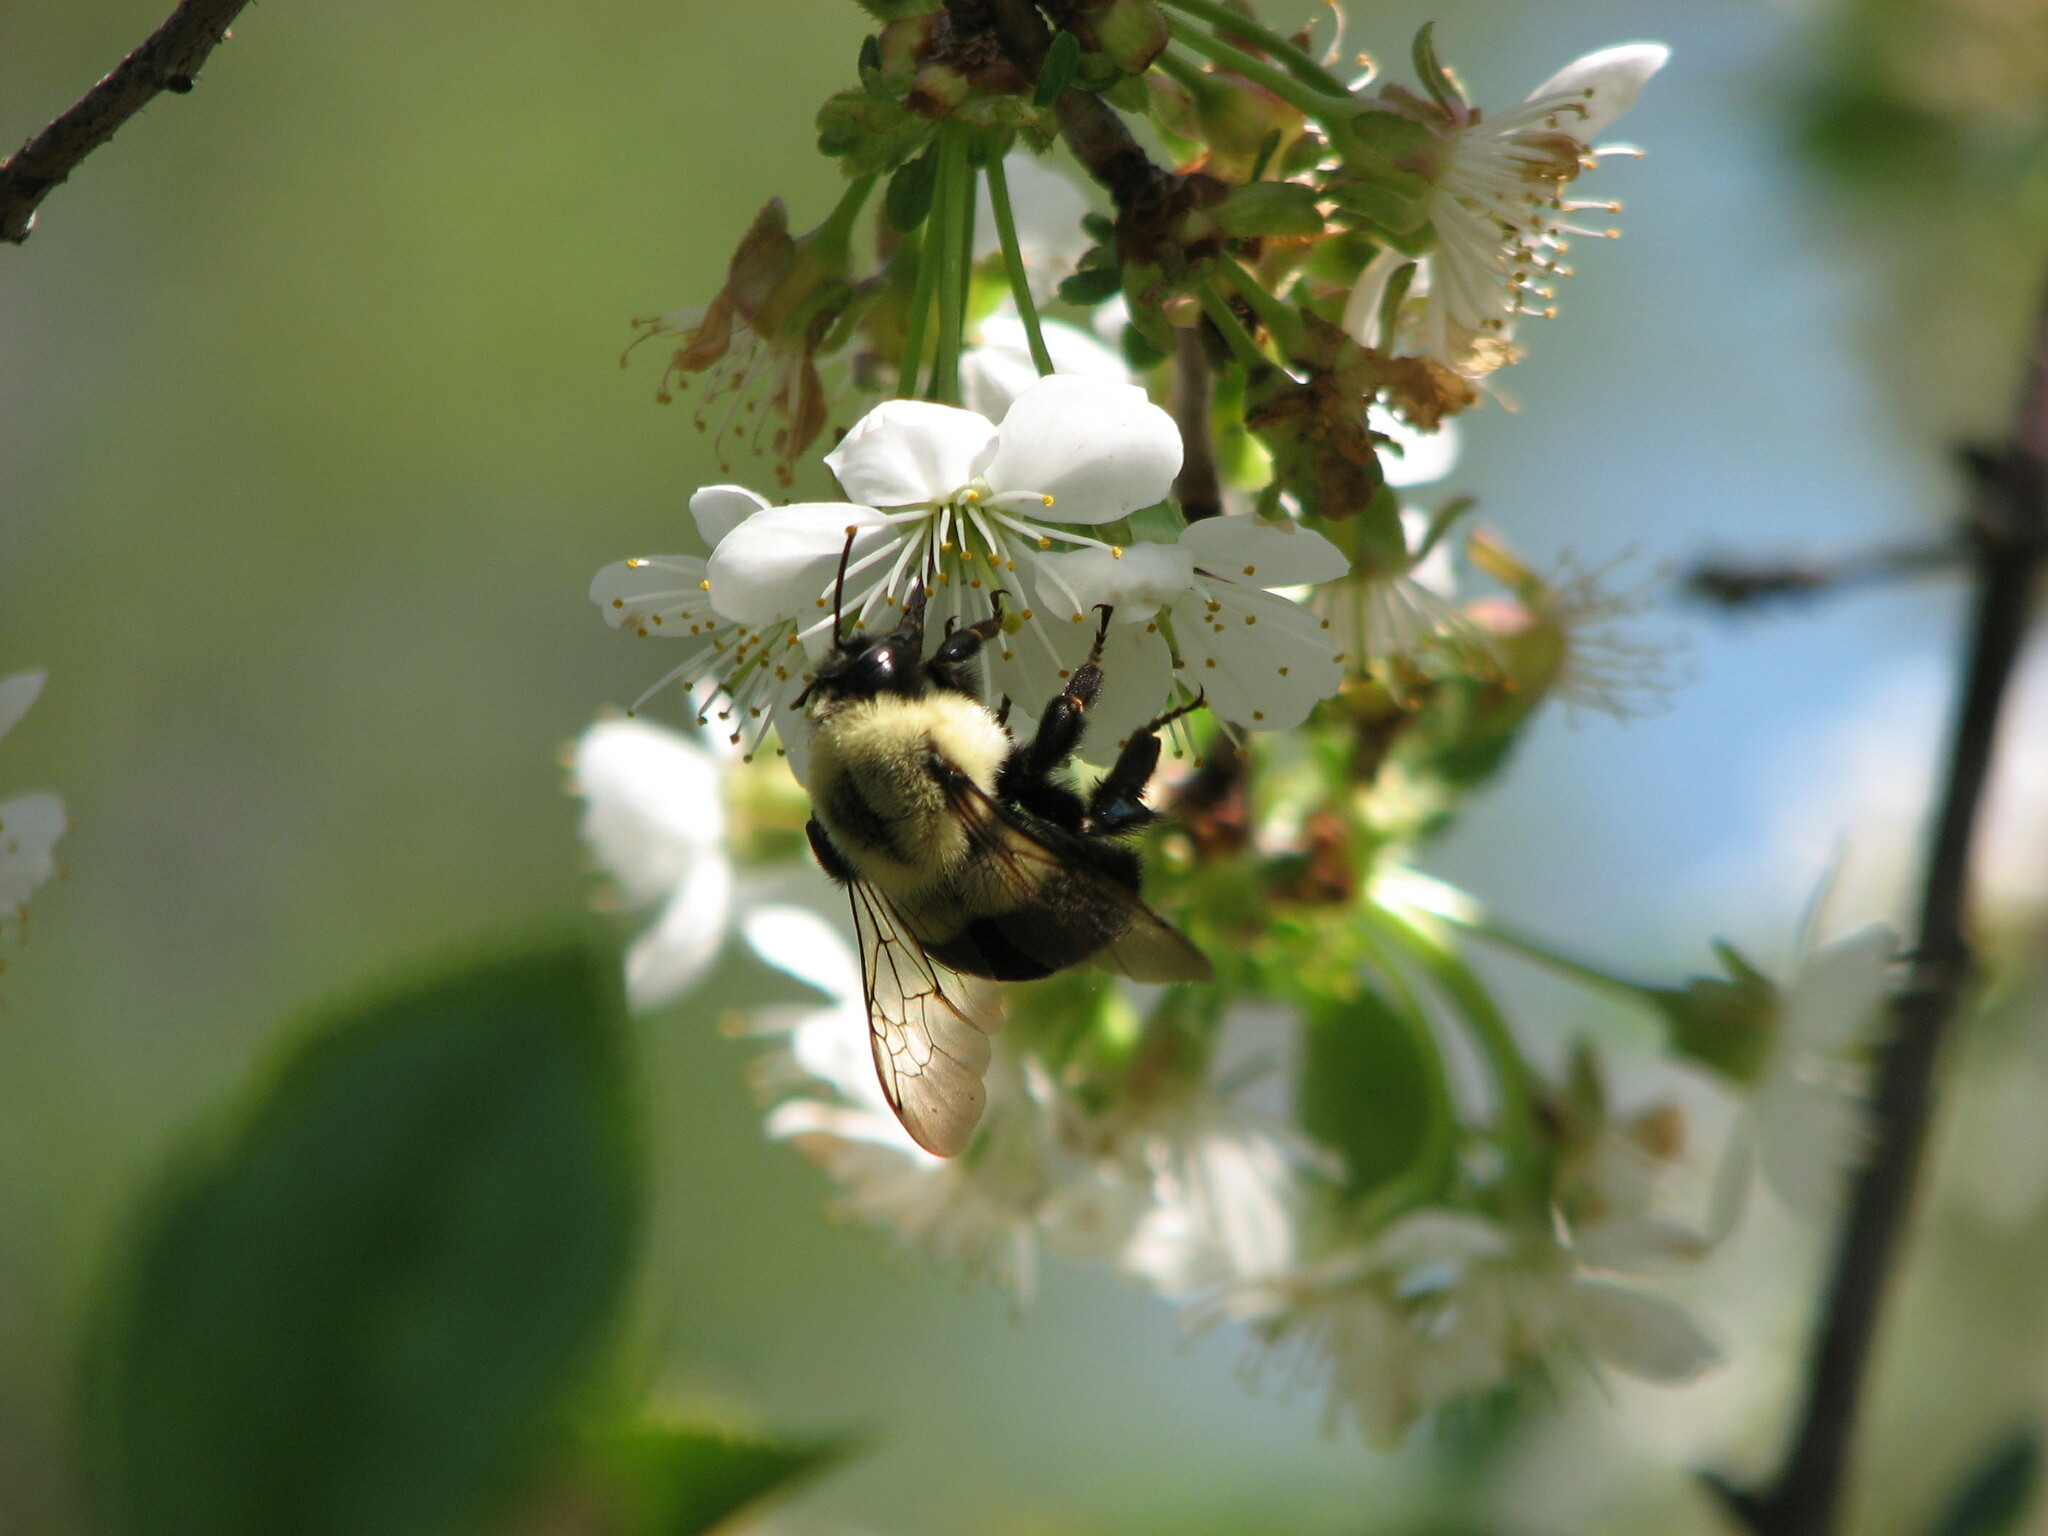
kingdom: Animalia
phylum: Arthropoda
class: Insecta
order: Hymenoptera
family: Apidae
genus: Bombus
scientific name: Bombus impatiens
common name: Common eastern bumble bee
